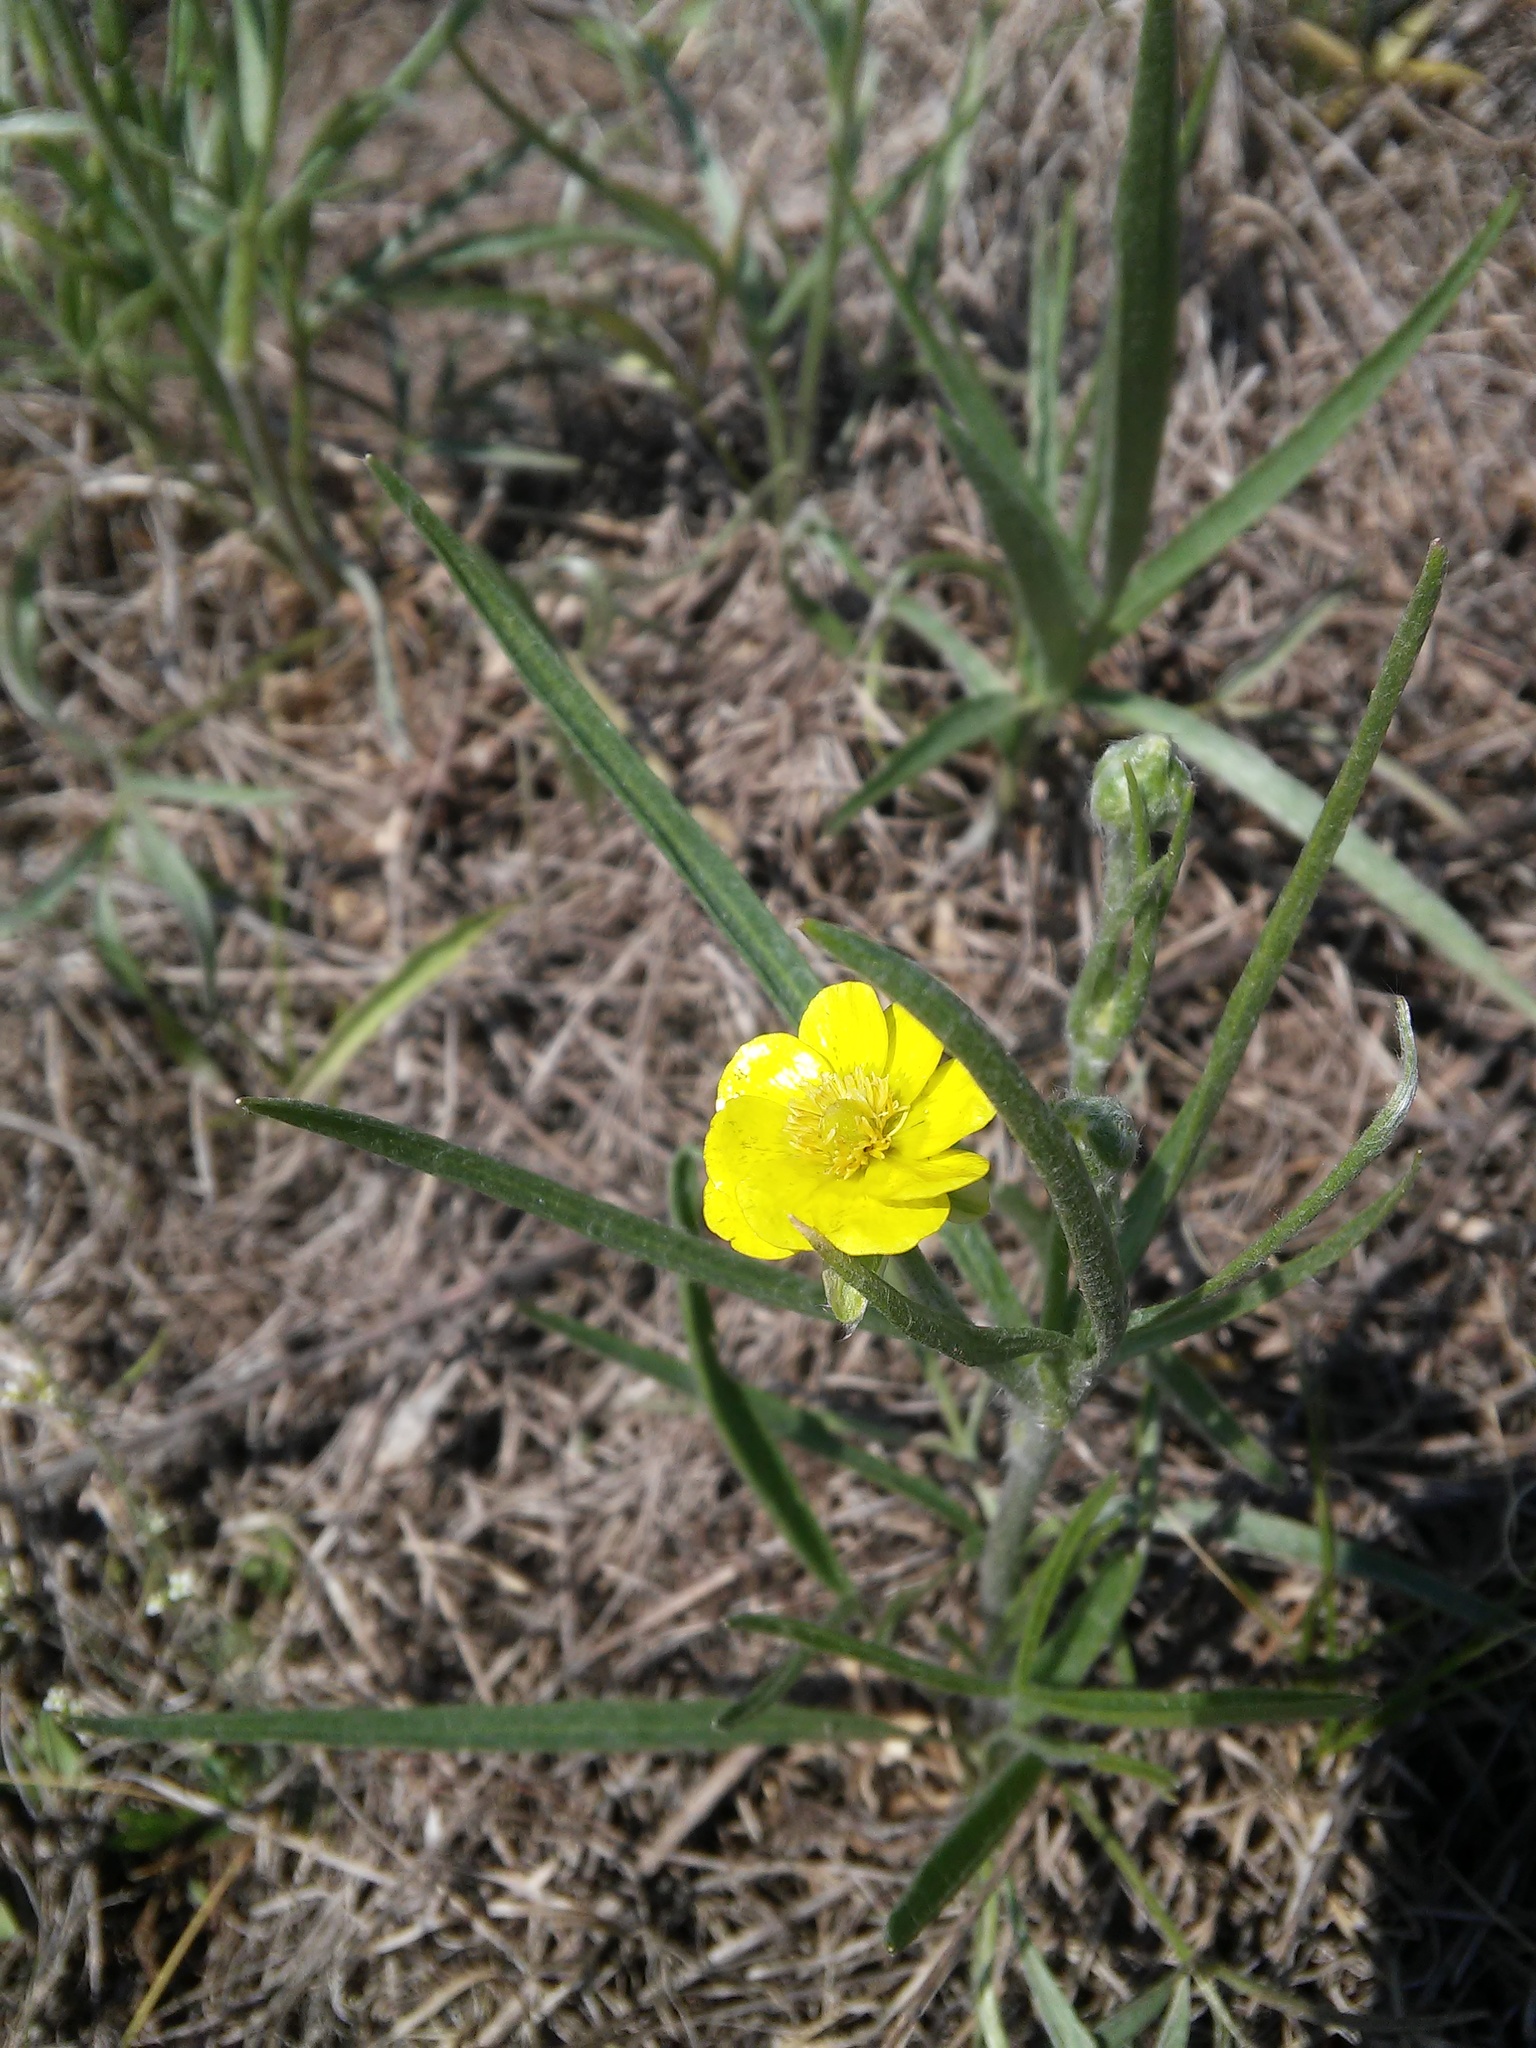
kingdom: Plantae
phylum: Tracheophyta
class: Magnoliopsida
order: Ranunculales
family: Ranunculaceae
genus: Ranunculus
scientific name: Ranunculus illyricus
